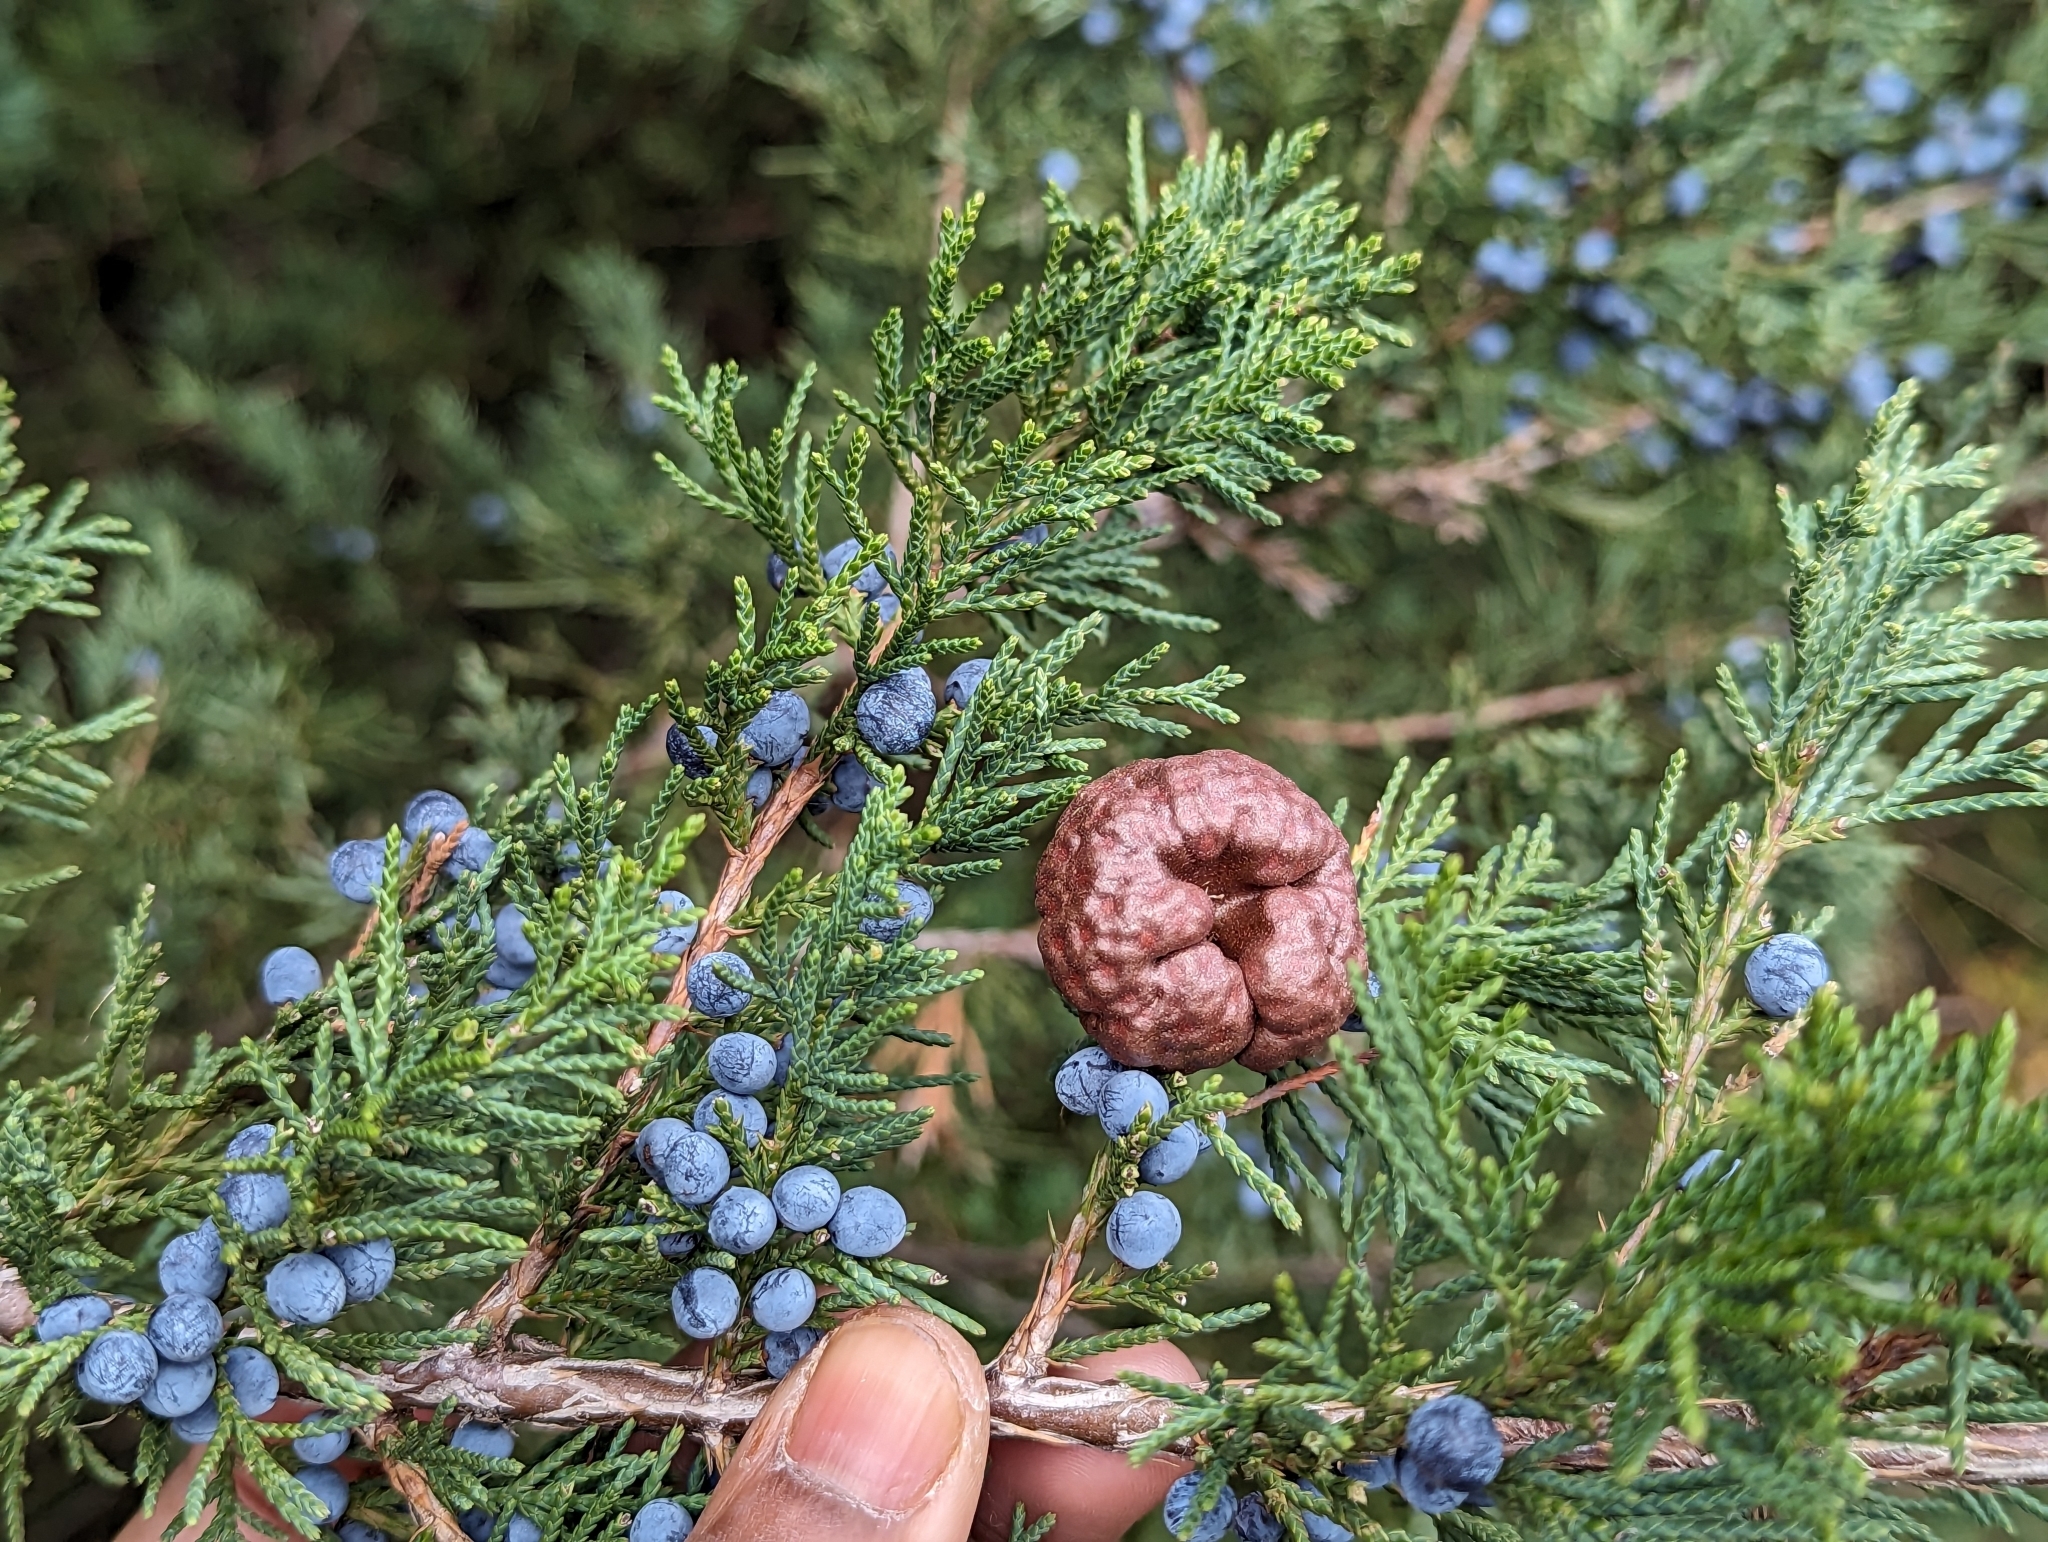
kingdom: Fungi
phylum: Basidiomycota
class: Pucciniomycetes
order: Pucciniales
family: Gymnosporangiaceae
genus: Gymnosporangium
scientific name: Gymnosporangium juniperi-virginianae
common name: Juniper-apple rust
